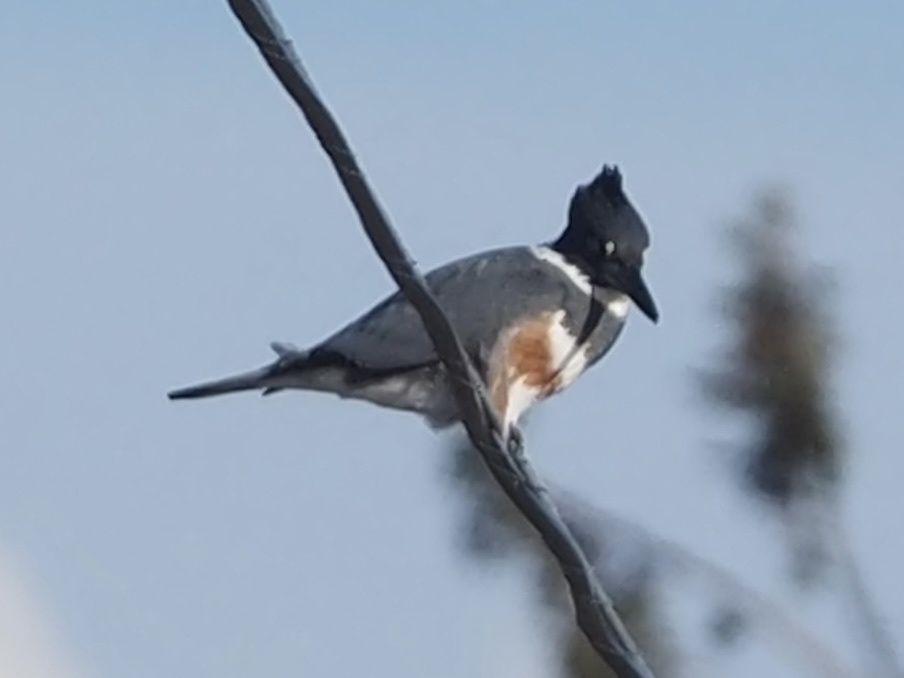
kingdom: Animalia
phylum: Chordata
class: Aves
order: Coraciiformes
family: Alcedinidae
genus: Megaceryle
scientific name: Megaceryle alcyon
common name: Belted kingfisher
